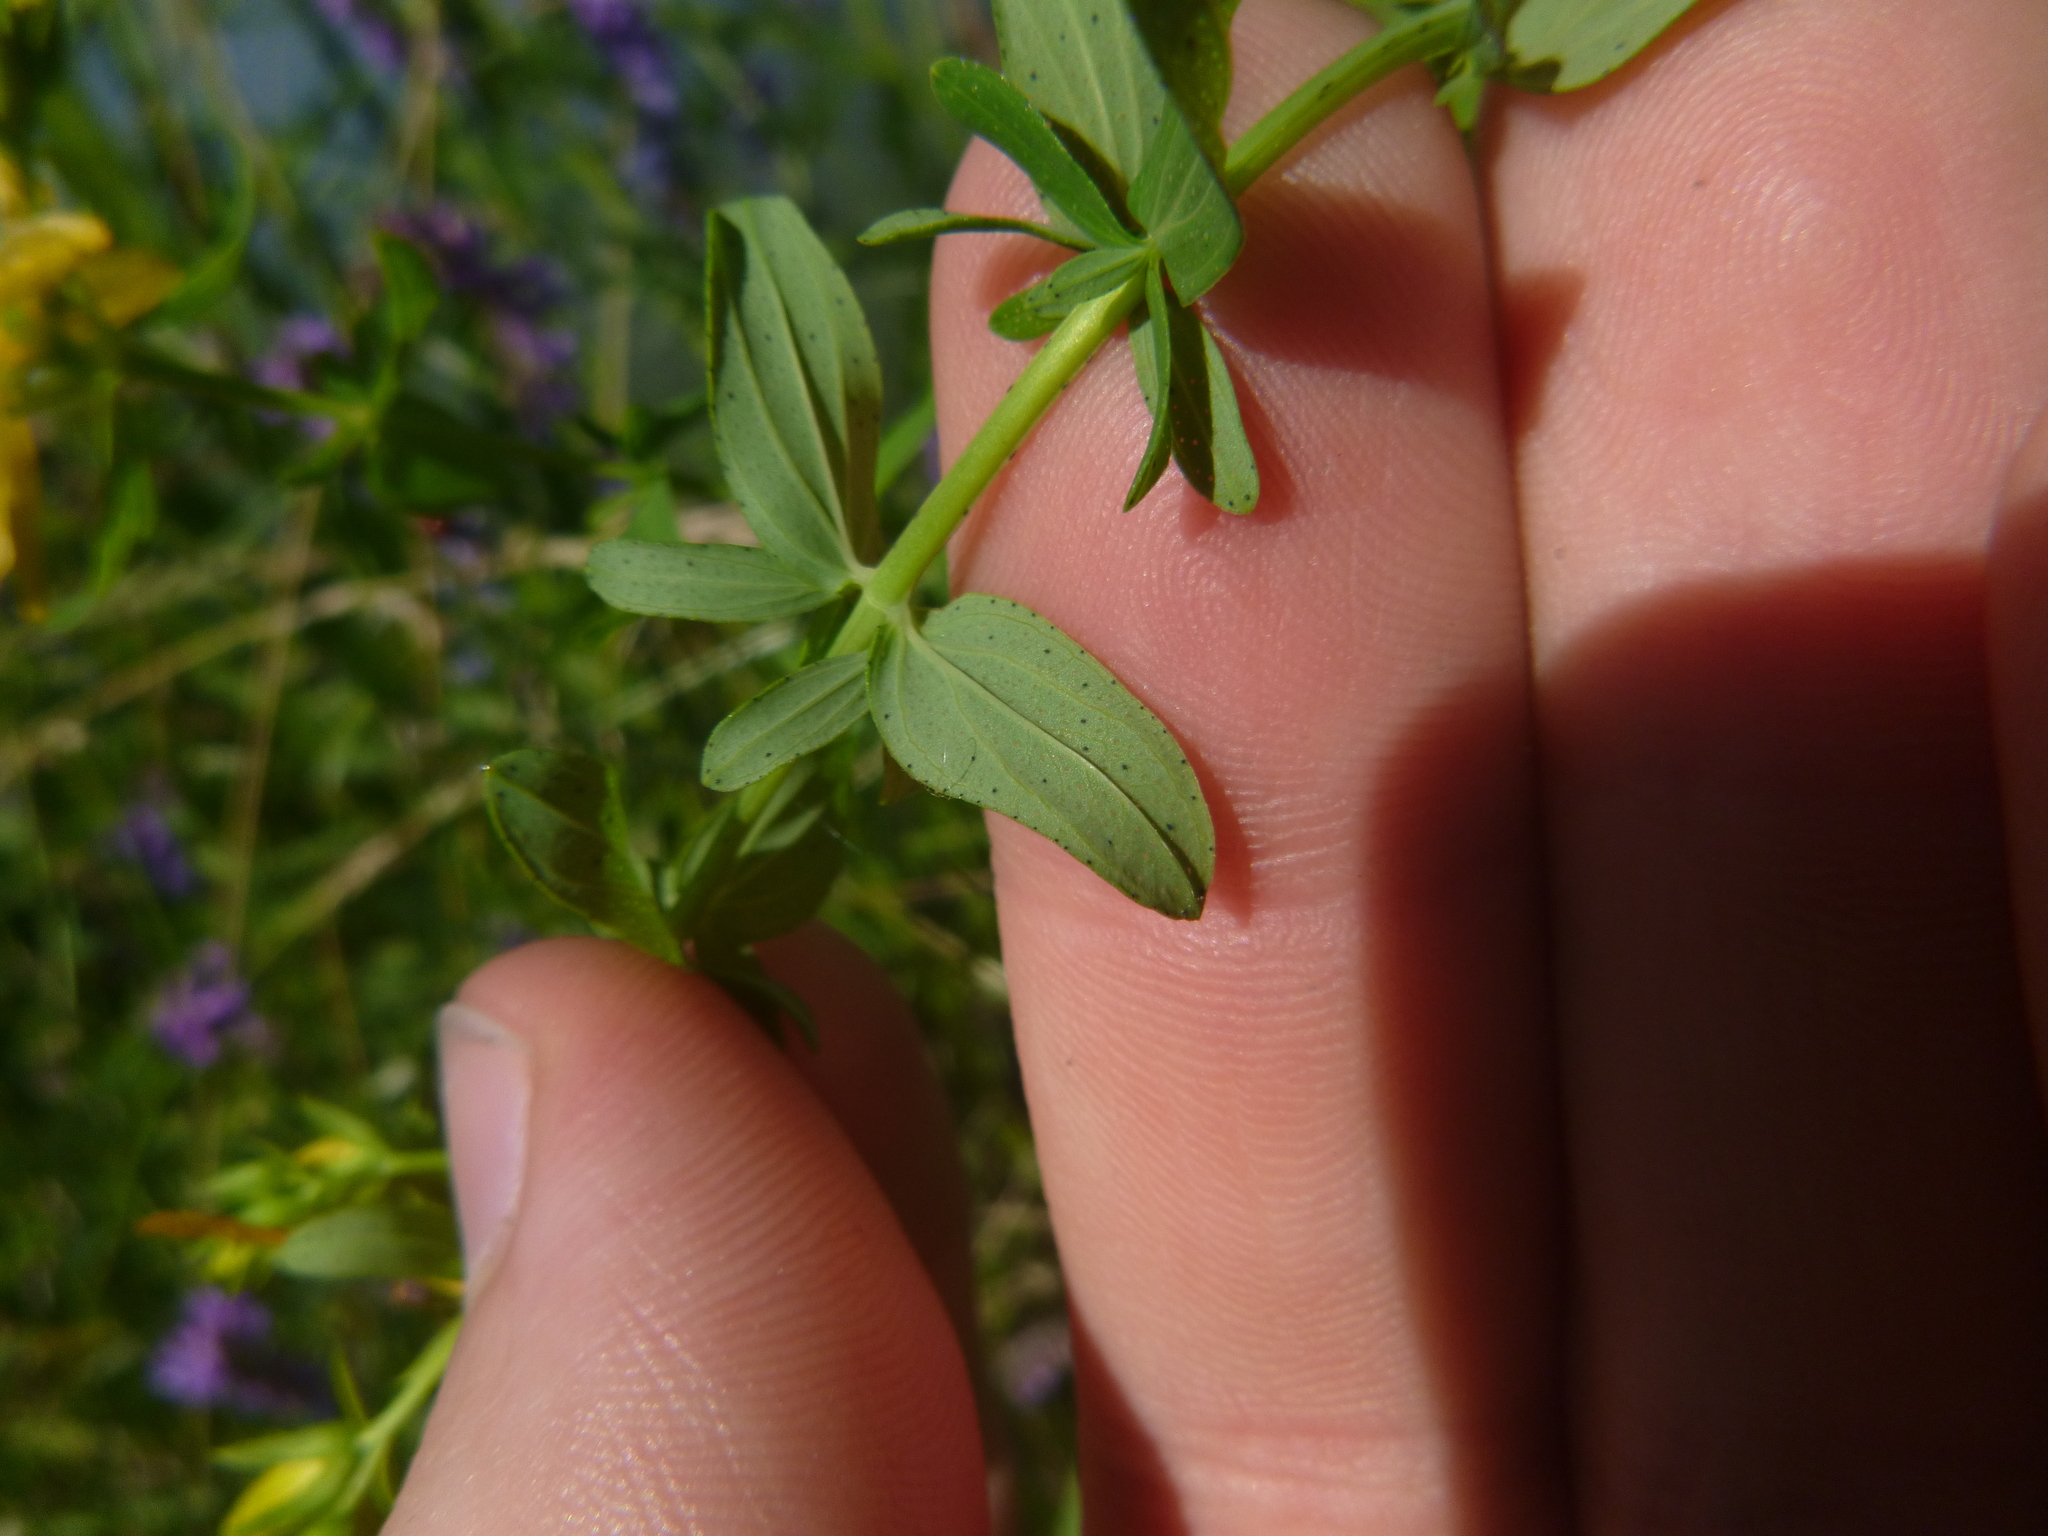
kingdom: Plantae
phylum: Tracheophyta
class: Magnoliopsida
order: Malpighiales
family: Hypericaceae
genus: Hypericum
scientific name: Hypericum perforatum
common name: Common st. johnswort
